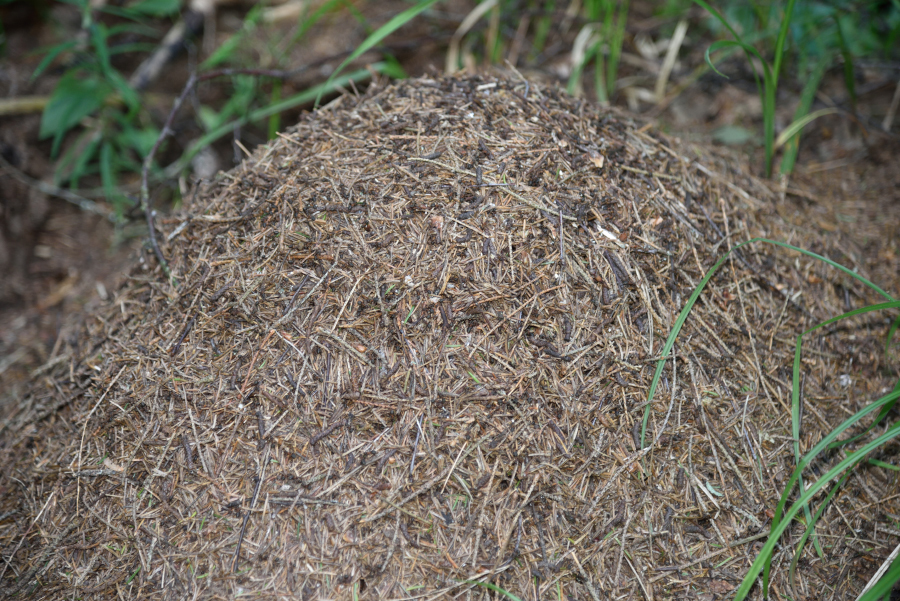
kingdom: Animalia
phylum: Arthropoda
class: Insecta
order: Hymenoptera
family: Formicidae
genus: Formica
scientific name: Formica
